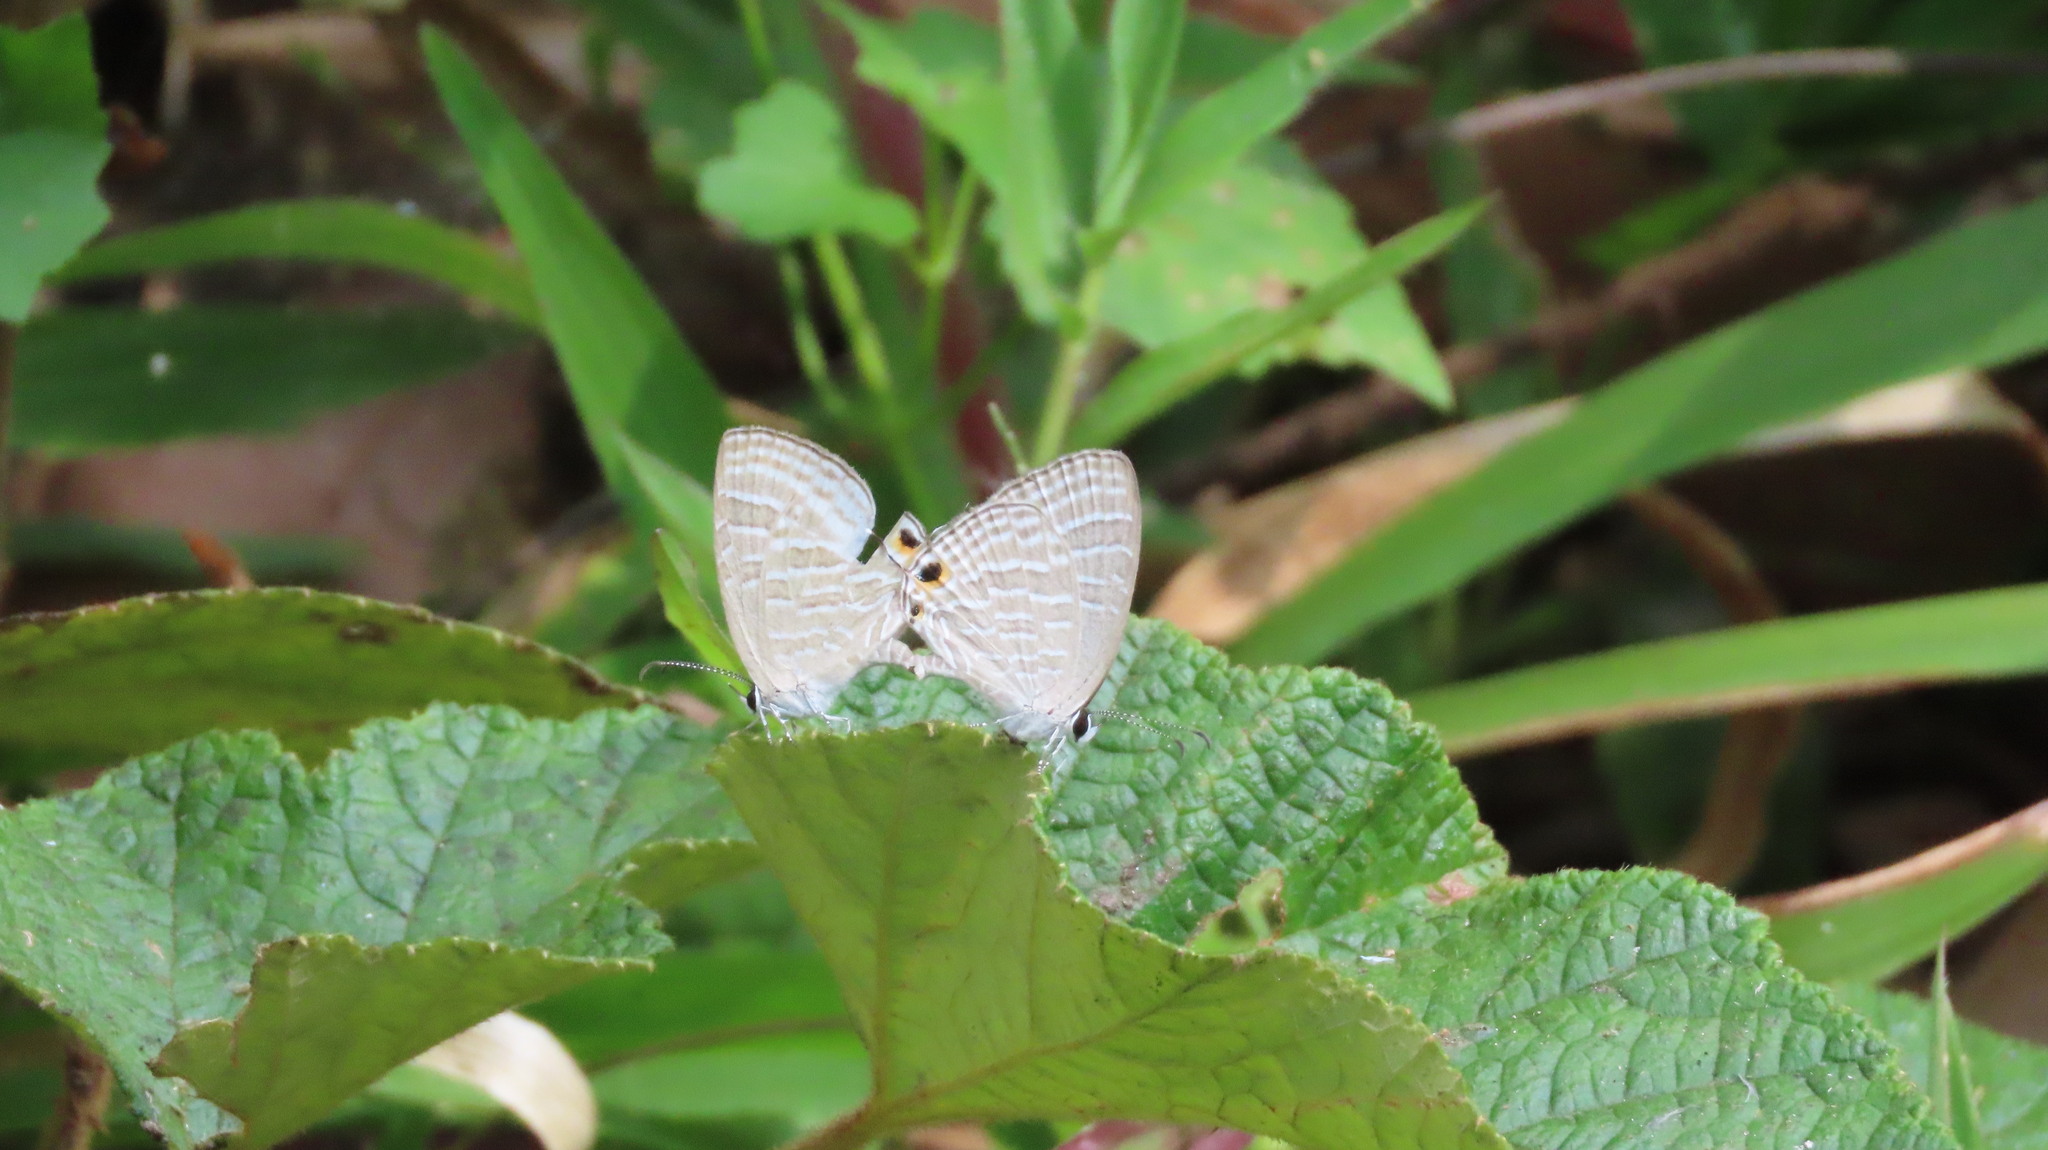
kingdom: Animalia
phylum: Arthropoda
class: Insecta
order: Lepidoptera
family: Lycaenidae
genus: Jamides
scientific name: Jamides celeno
